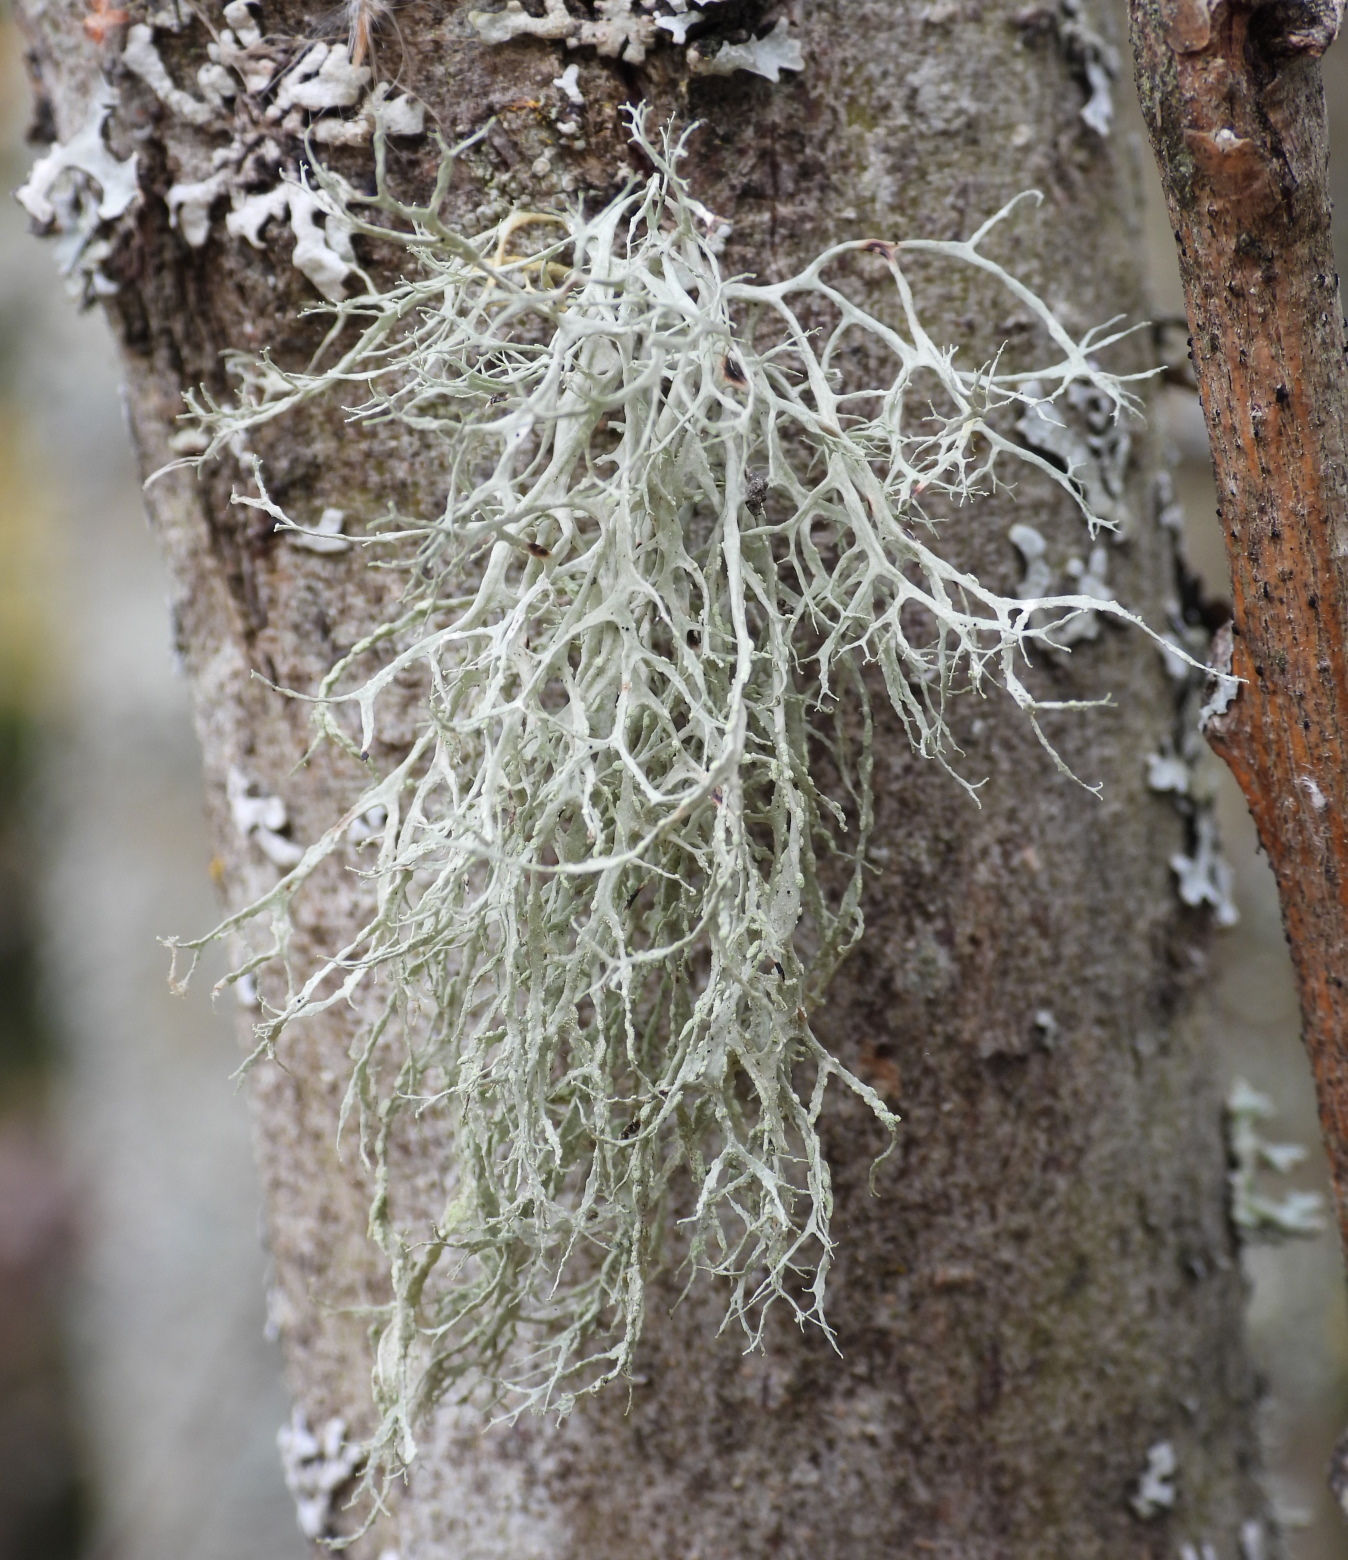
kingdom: Fungi
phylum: Ascomycota
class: Lecanoromycetes
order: Lecanorales
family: Ramalinaceae
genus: Ramalina
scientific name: Ramalina farinacea
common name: Farinose cartilage lichen
